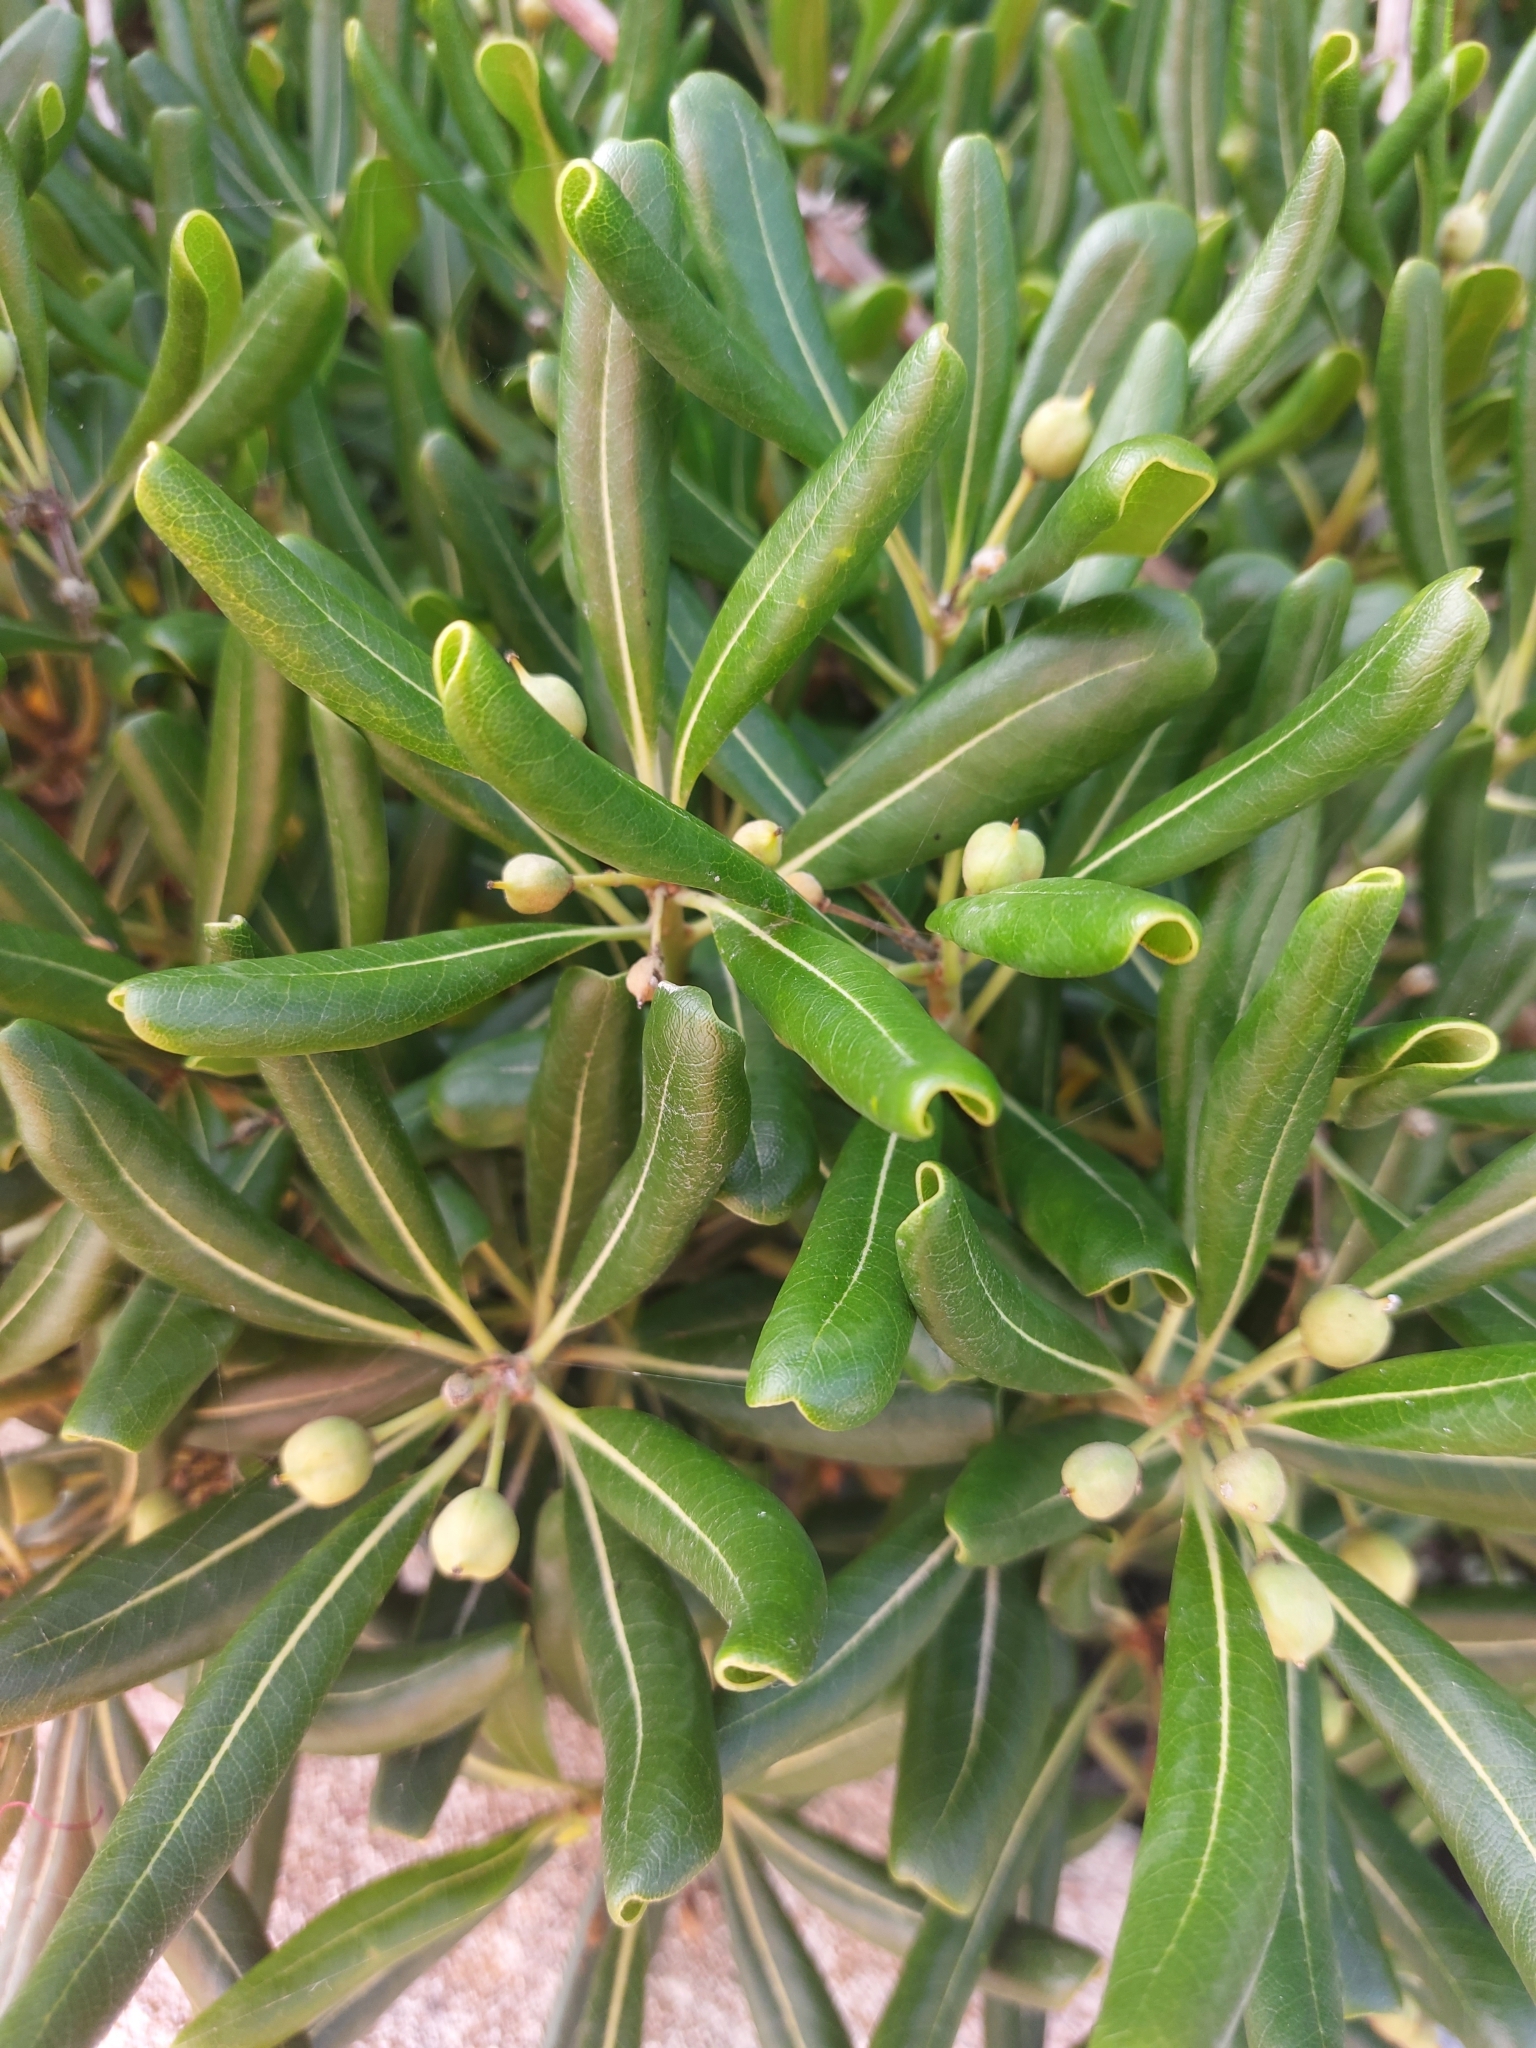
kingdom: Plantae
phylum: Tracheophyta
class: Magnoliopsida
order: Apiales
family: Pittosporaceae
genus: Pittosporum
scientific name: Pittosporum tobira
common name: Japanese cheesewood
